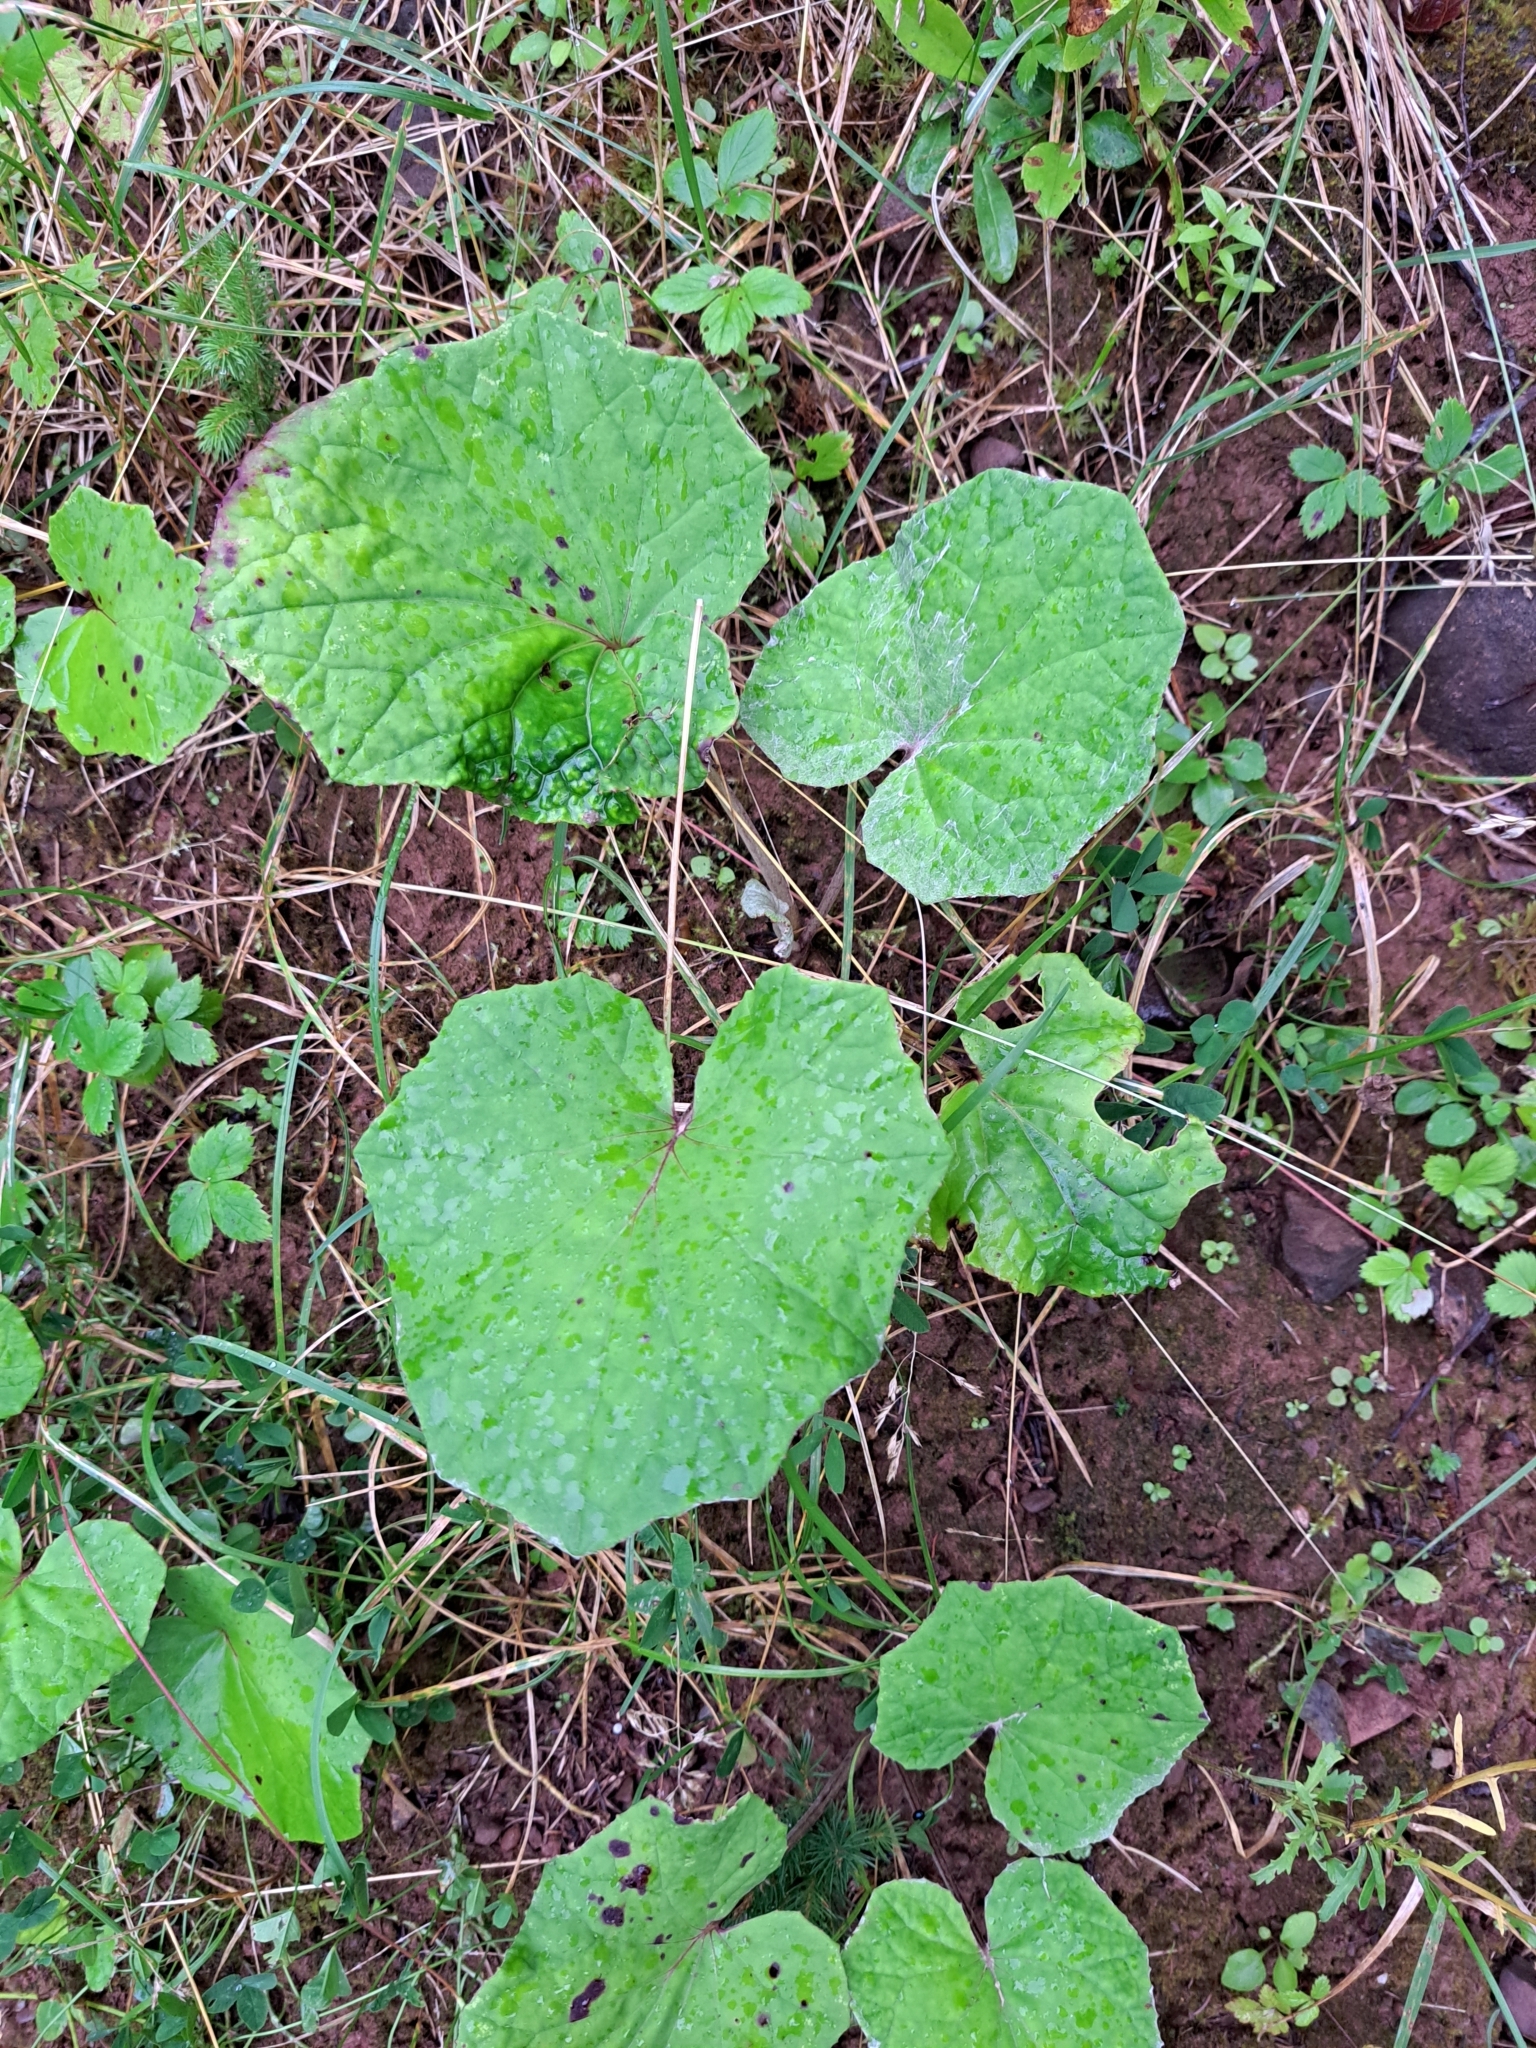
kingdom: Plantae
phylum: Tracheophyta
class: Magnoliopsida
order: Asterales
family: Asteraceae
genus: Tussilago
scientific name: Tussilago farfara
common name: Coltsfoot
